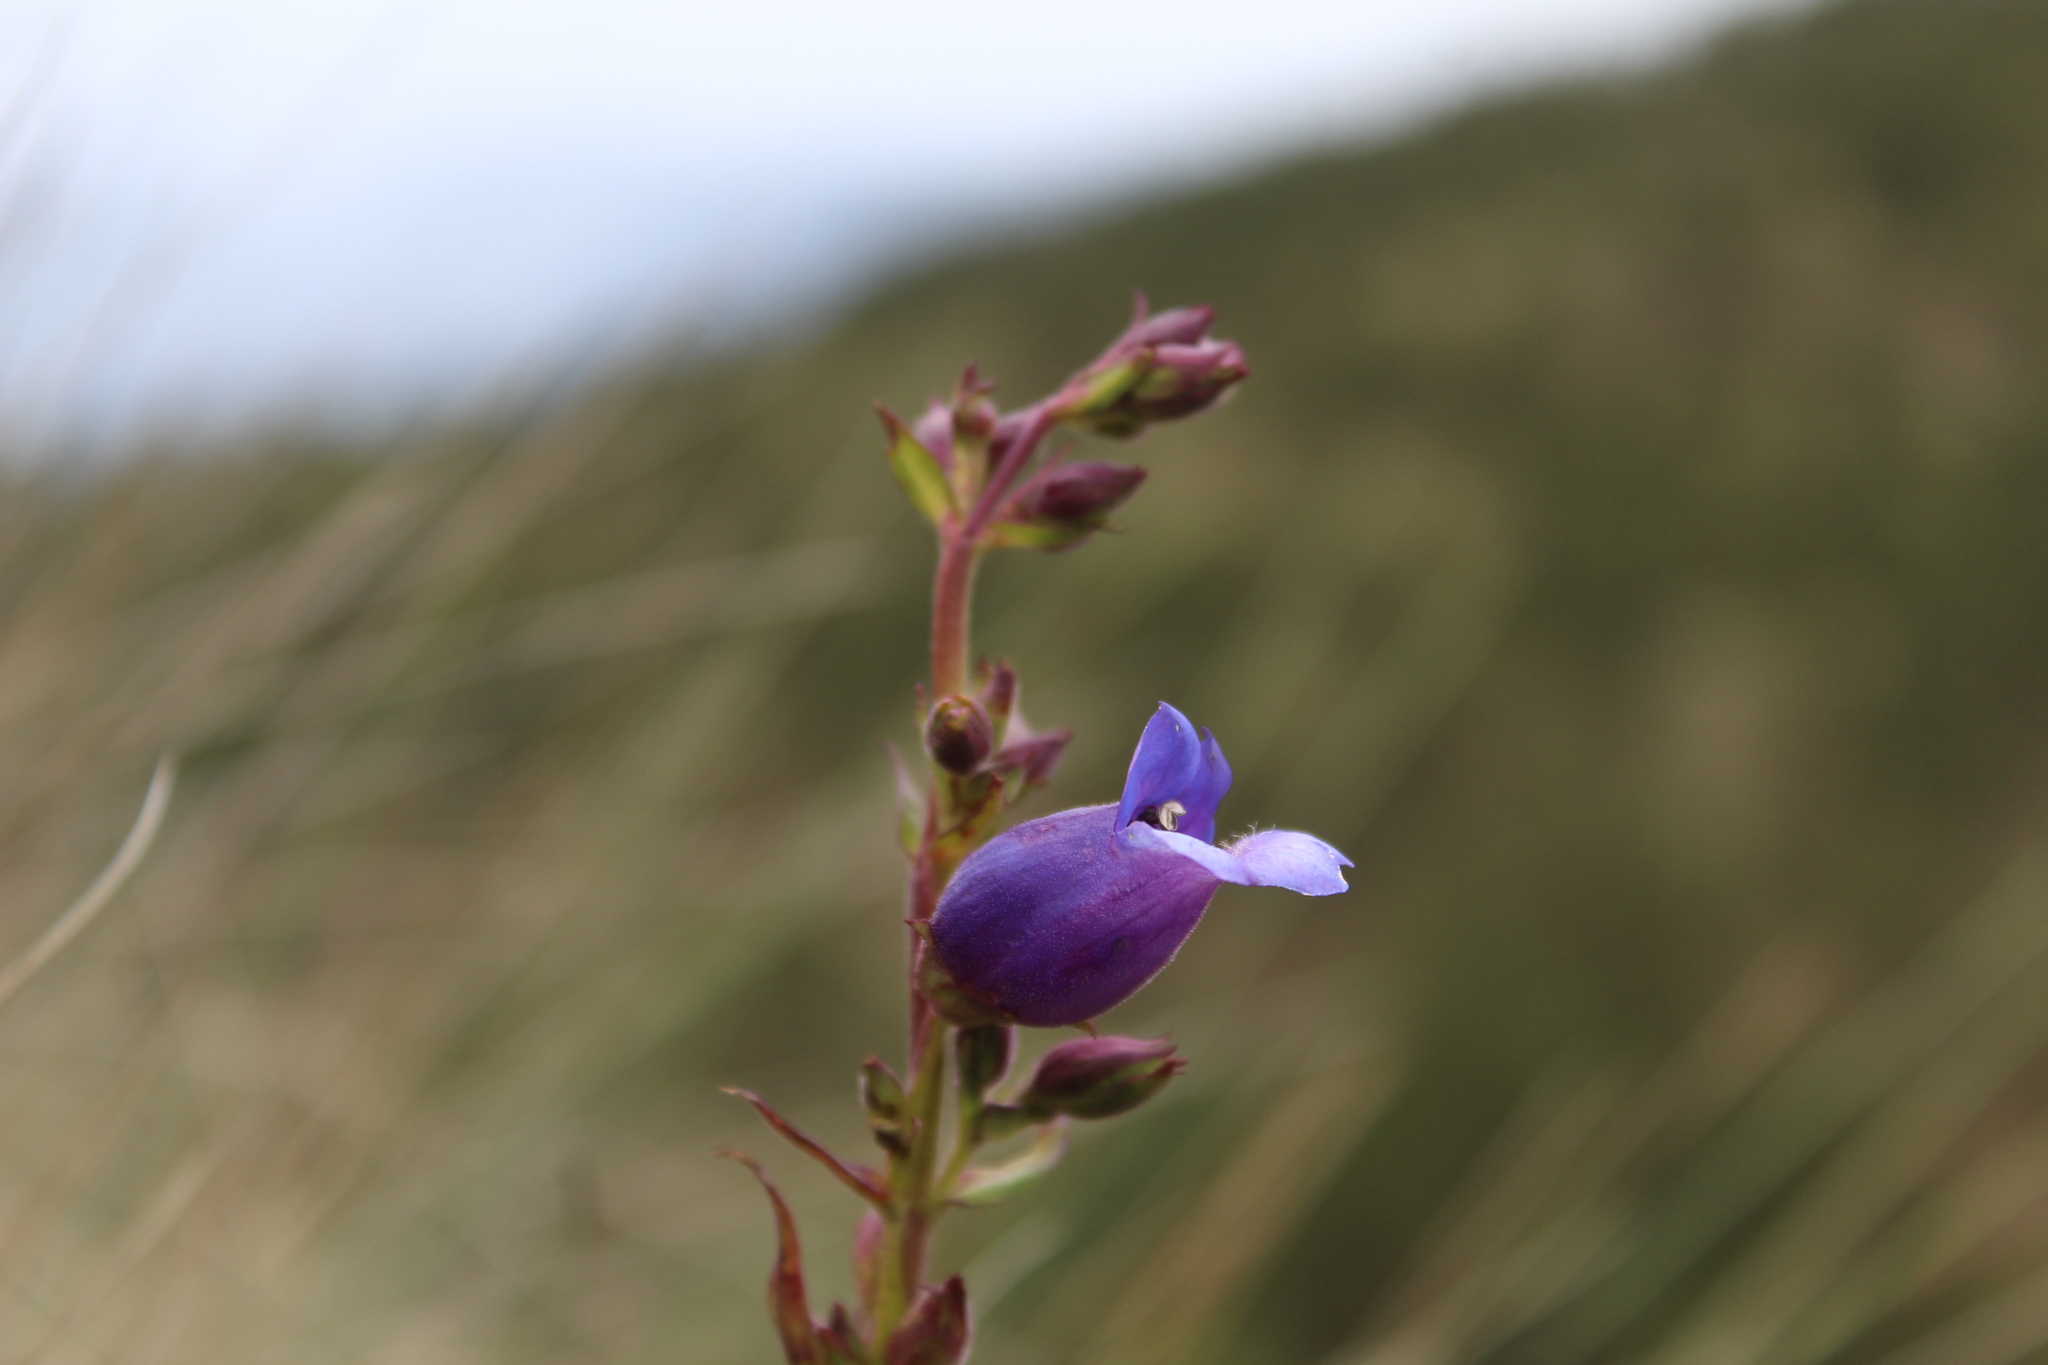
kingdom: Plantae
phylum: Tracheophyta
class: Magnoliopsida
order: Lamiales
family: Plantaginaceae
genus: Penstemon
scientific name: Penstemon gentianoides
